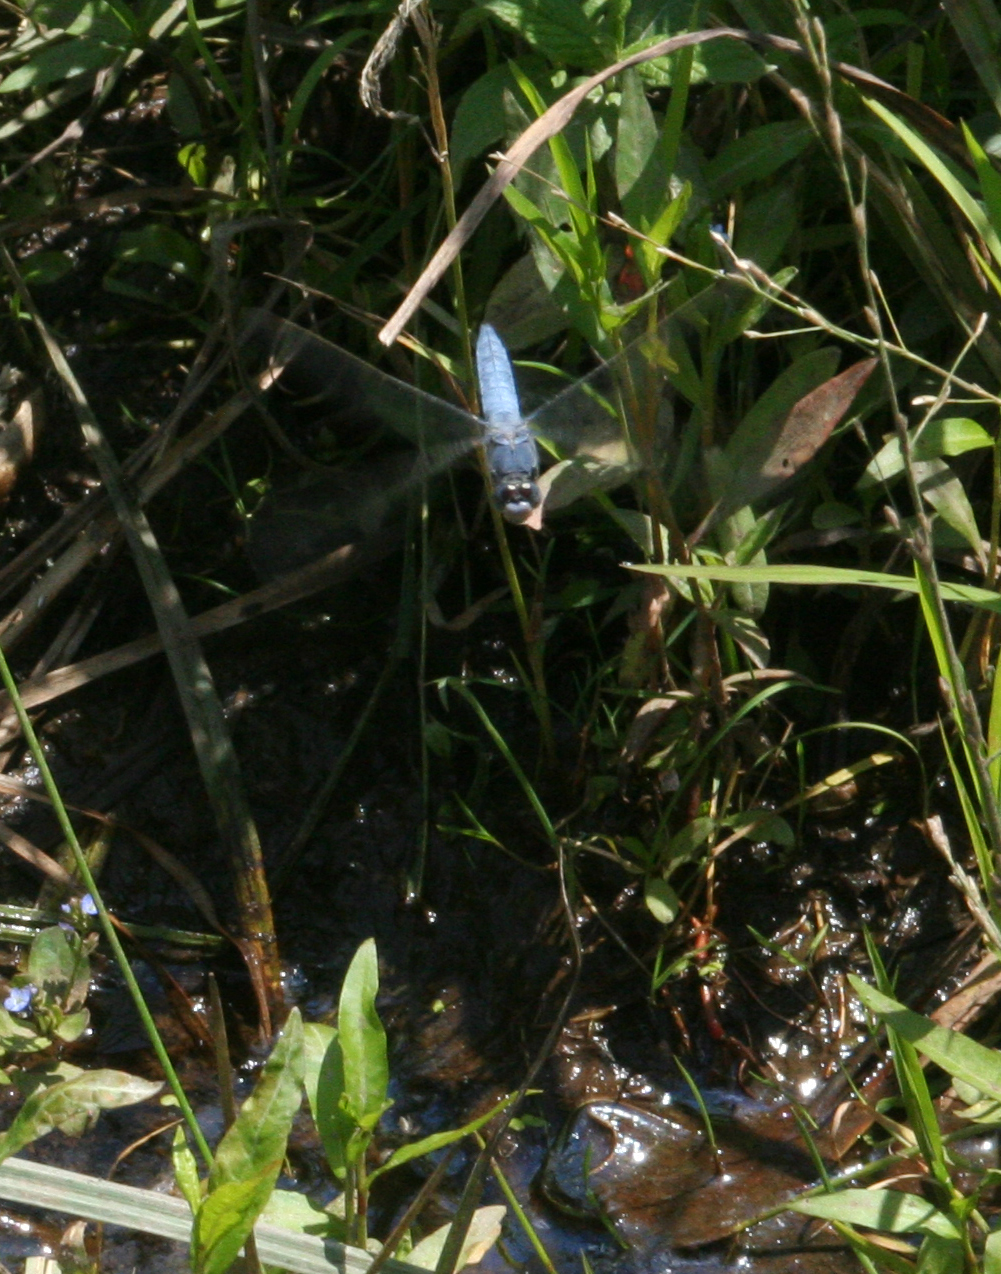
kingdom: Animalia
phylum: Arthropoda
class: Insecta
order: Odonata
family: Libellulidae
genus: Orthetrum
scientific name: Orthetrum brunneum
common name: Southern skimmer
